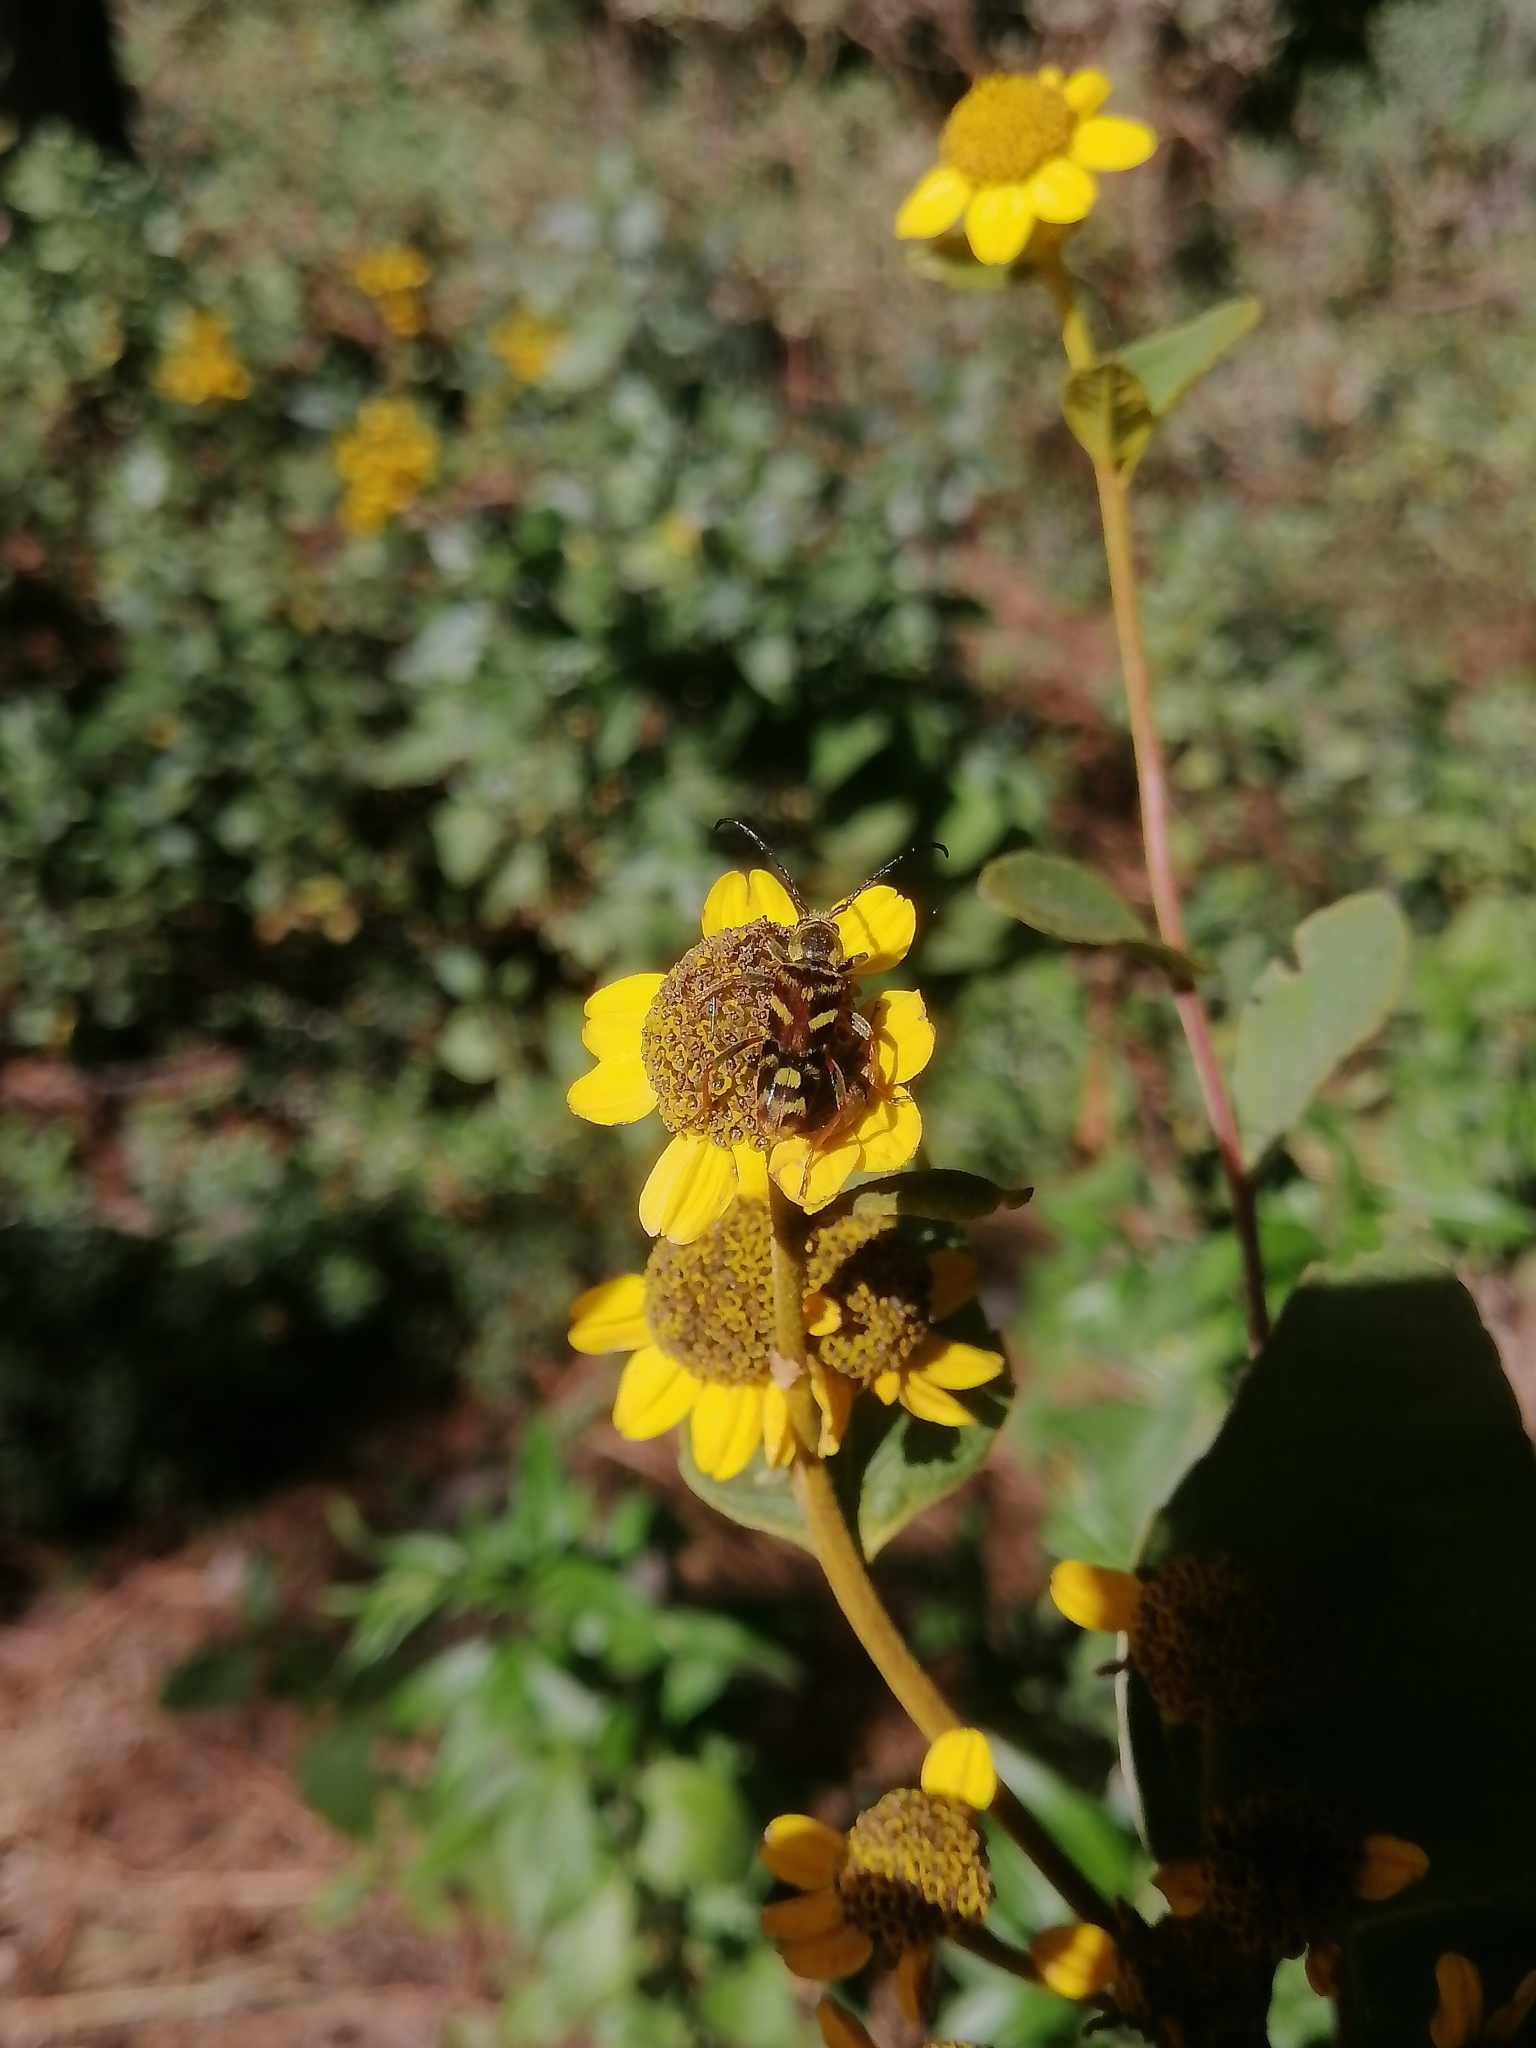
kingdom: Animalia
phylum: Arthropoda
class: Insecta
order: Coleoptera
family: Cerambycidae
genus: Ochraethes
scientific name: Ochraethes obliquus
